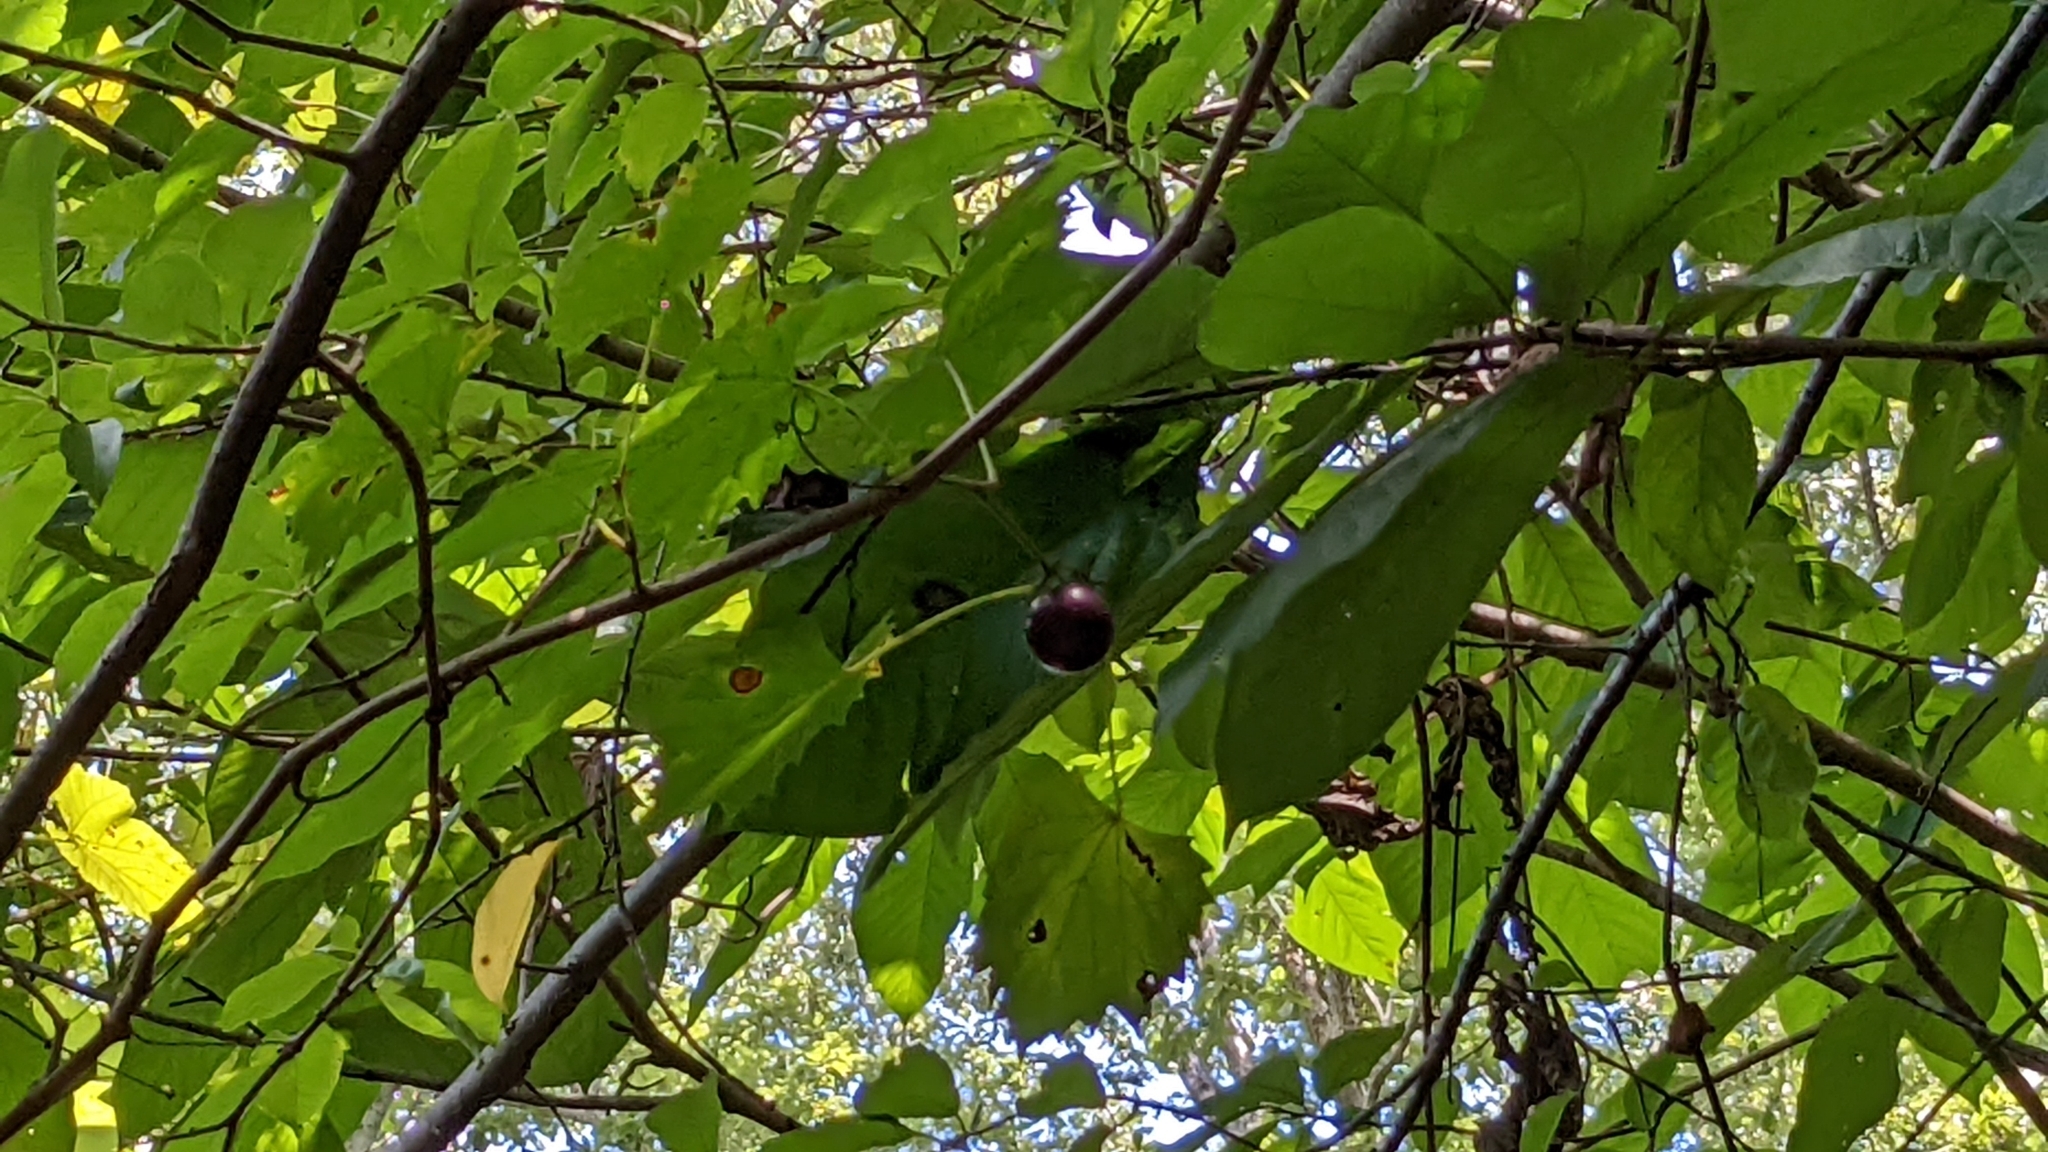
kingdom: Plantae
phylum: Tracheophyta
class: Magnoliopsida
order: Vitales
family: Vitaceae
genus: Vitis
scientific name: Vitis rotundifolia
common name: Muscadine grape
